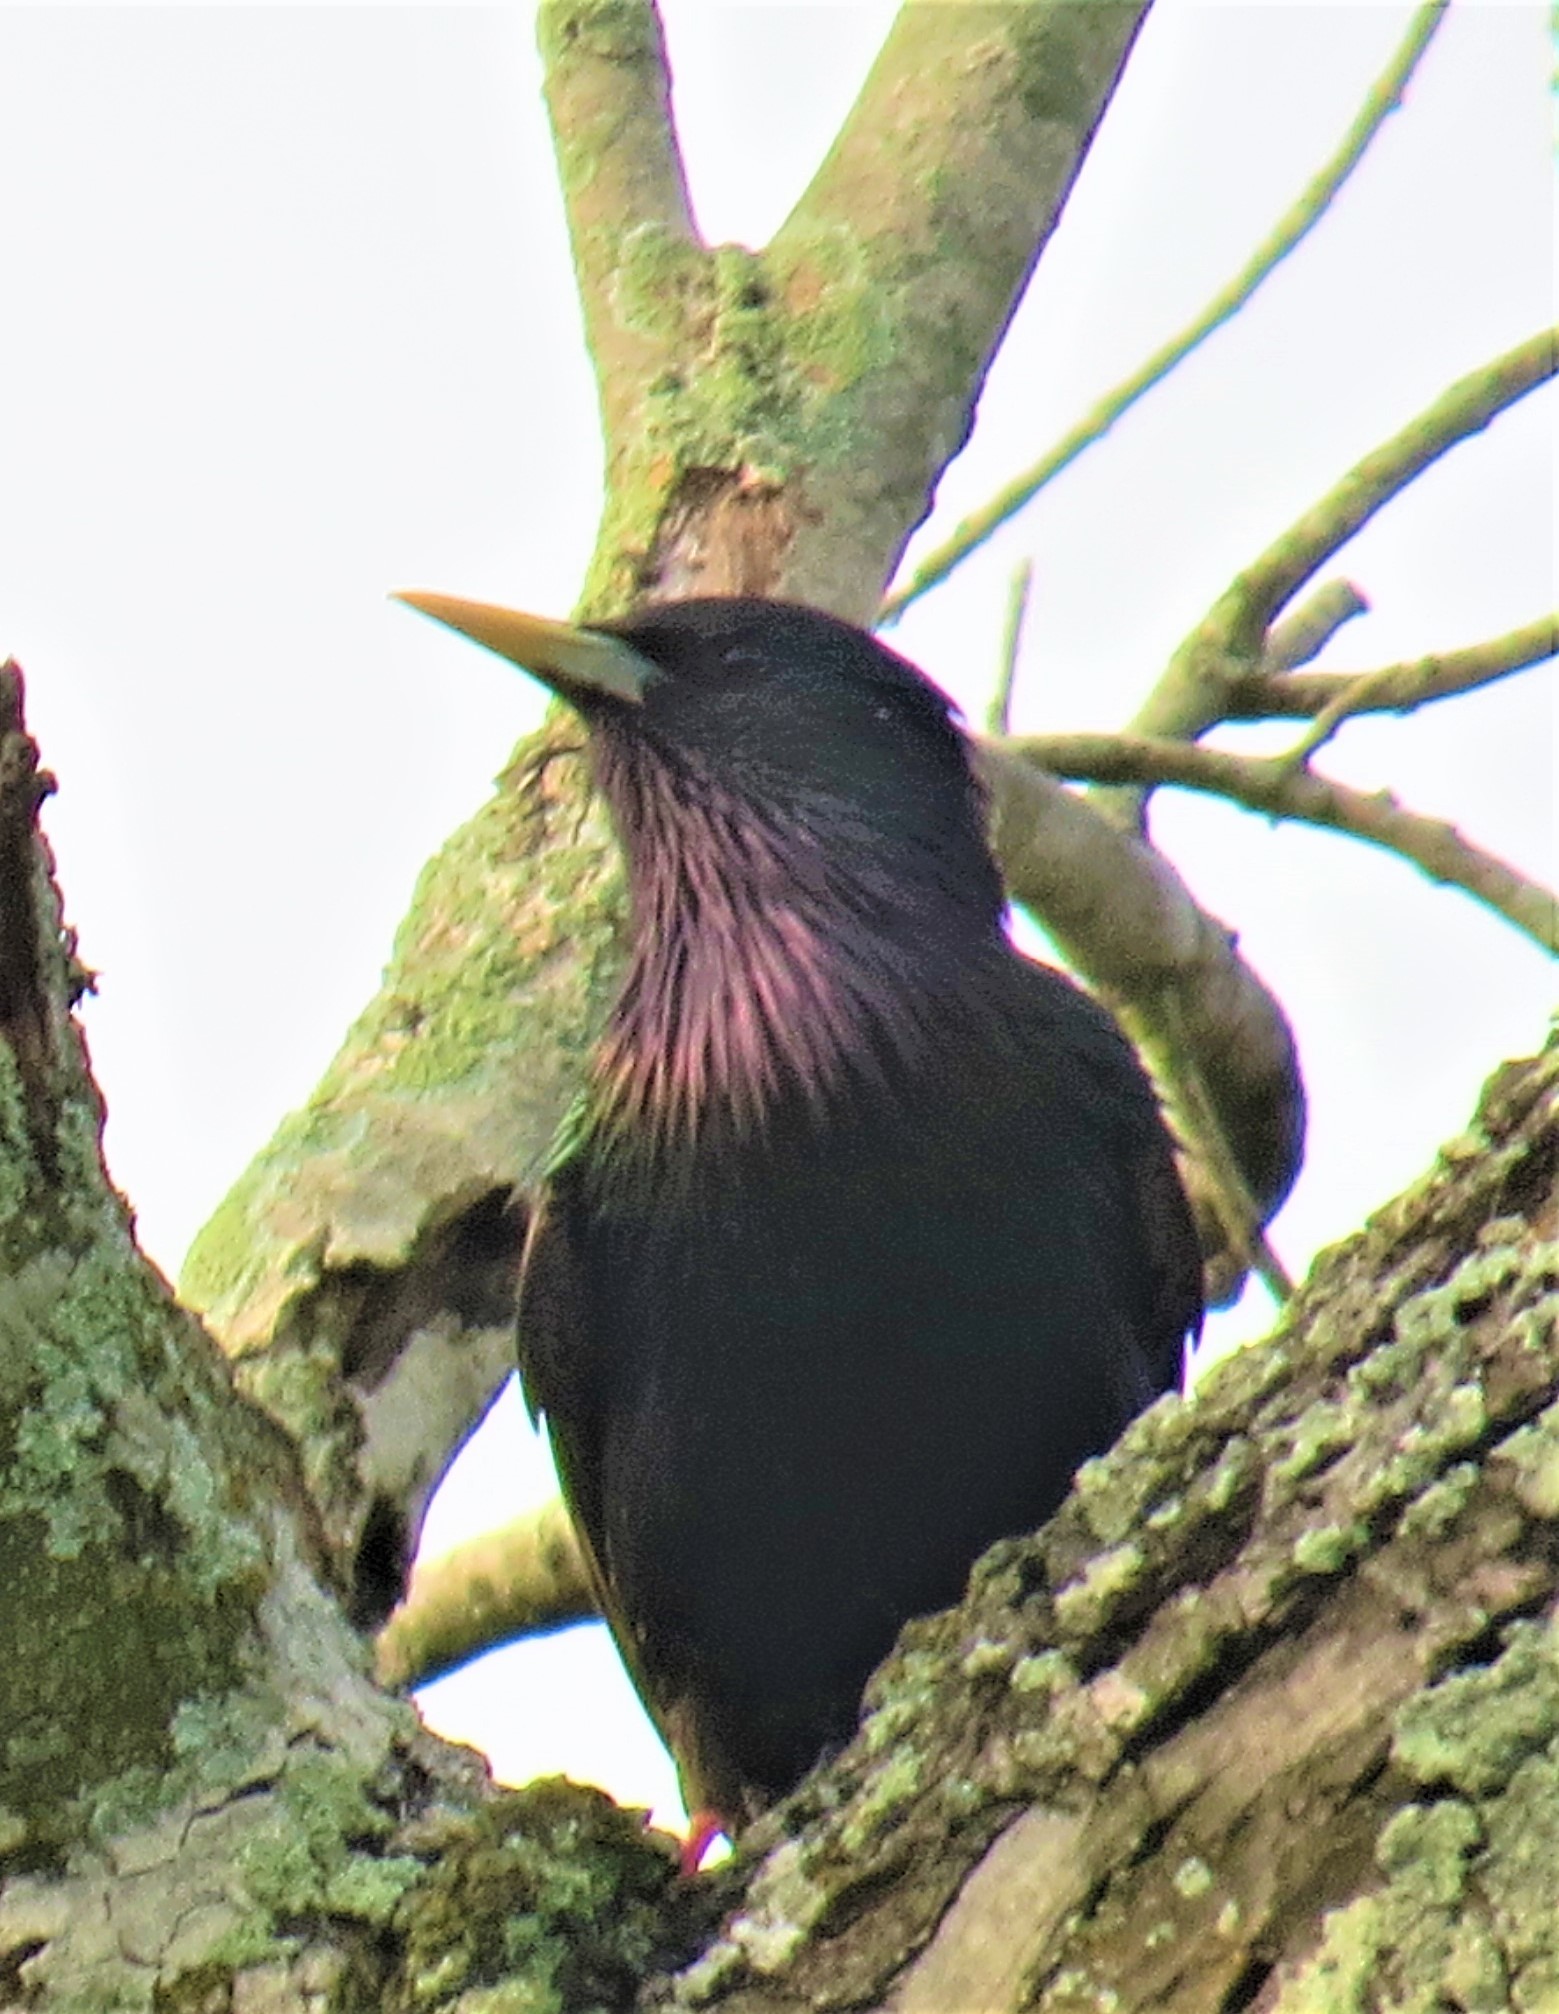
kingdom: Animalia
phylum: Chordata
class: Aves
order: Passeriformes
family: Sturnidae
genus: Sturnus
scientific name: Sturnus vulgaris
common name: Common starling
